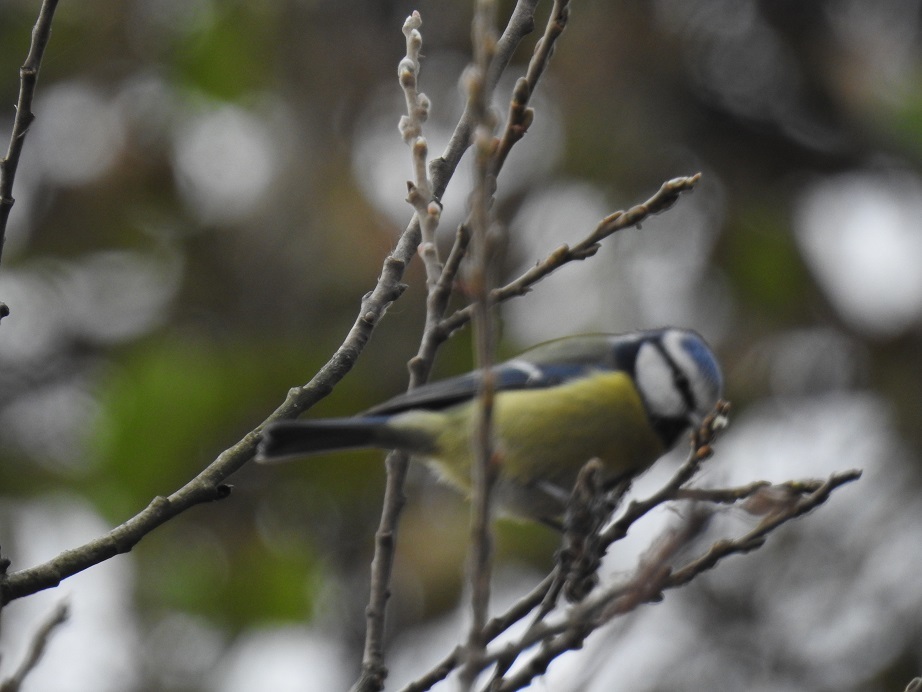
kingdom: Animalia
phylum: Chordata
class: Aves
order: Passeriformes
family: Paridae
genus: Cyanistes
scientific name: Cyanistes caeruleus
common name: Eurasian blue tit
